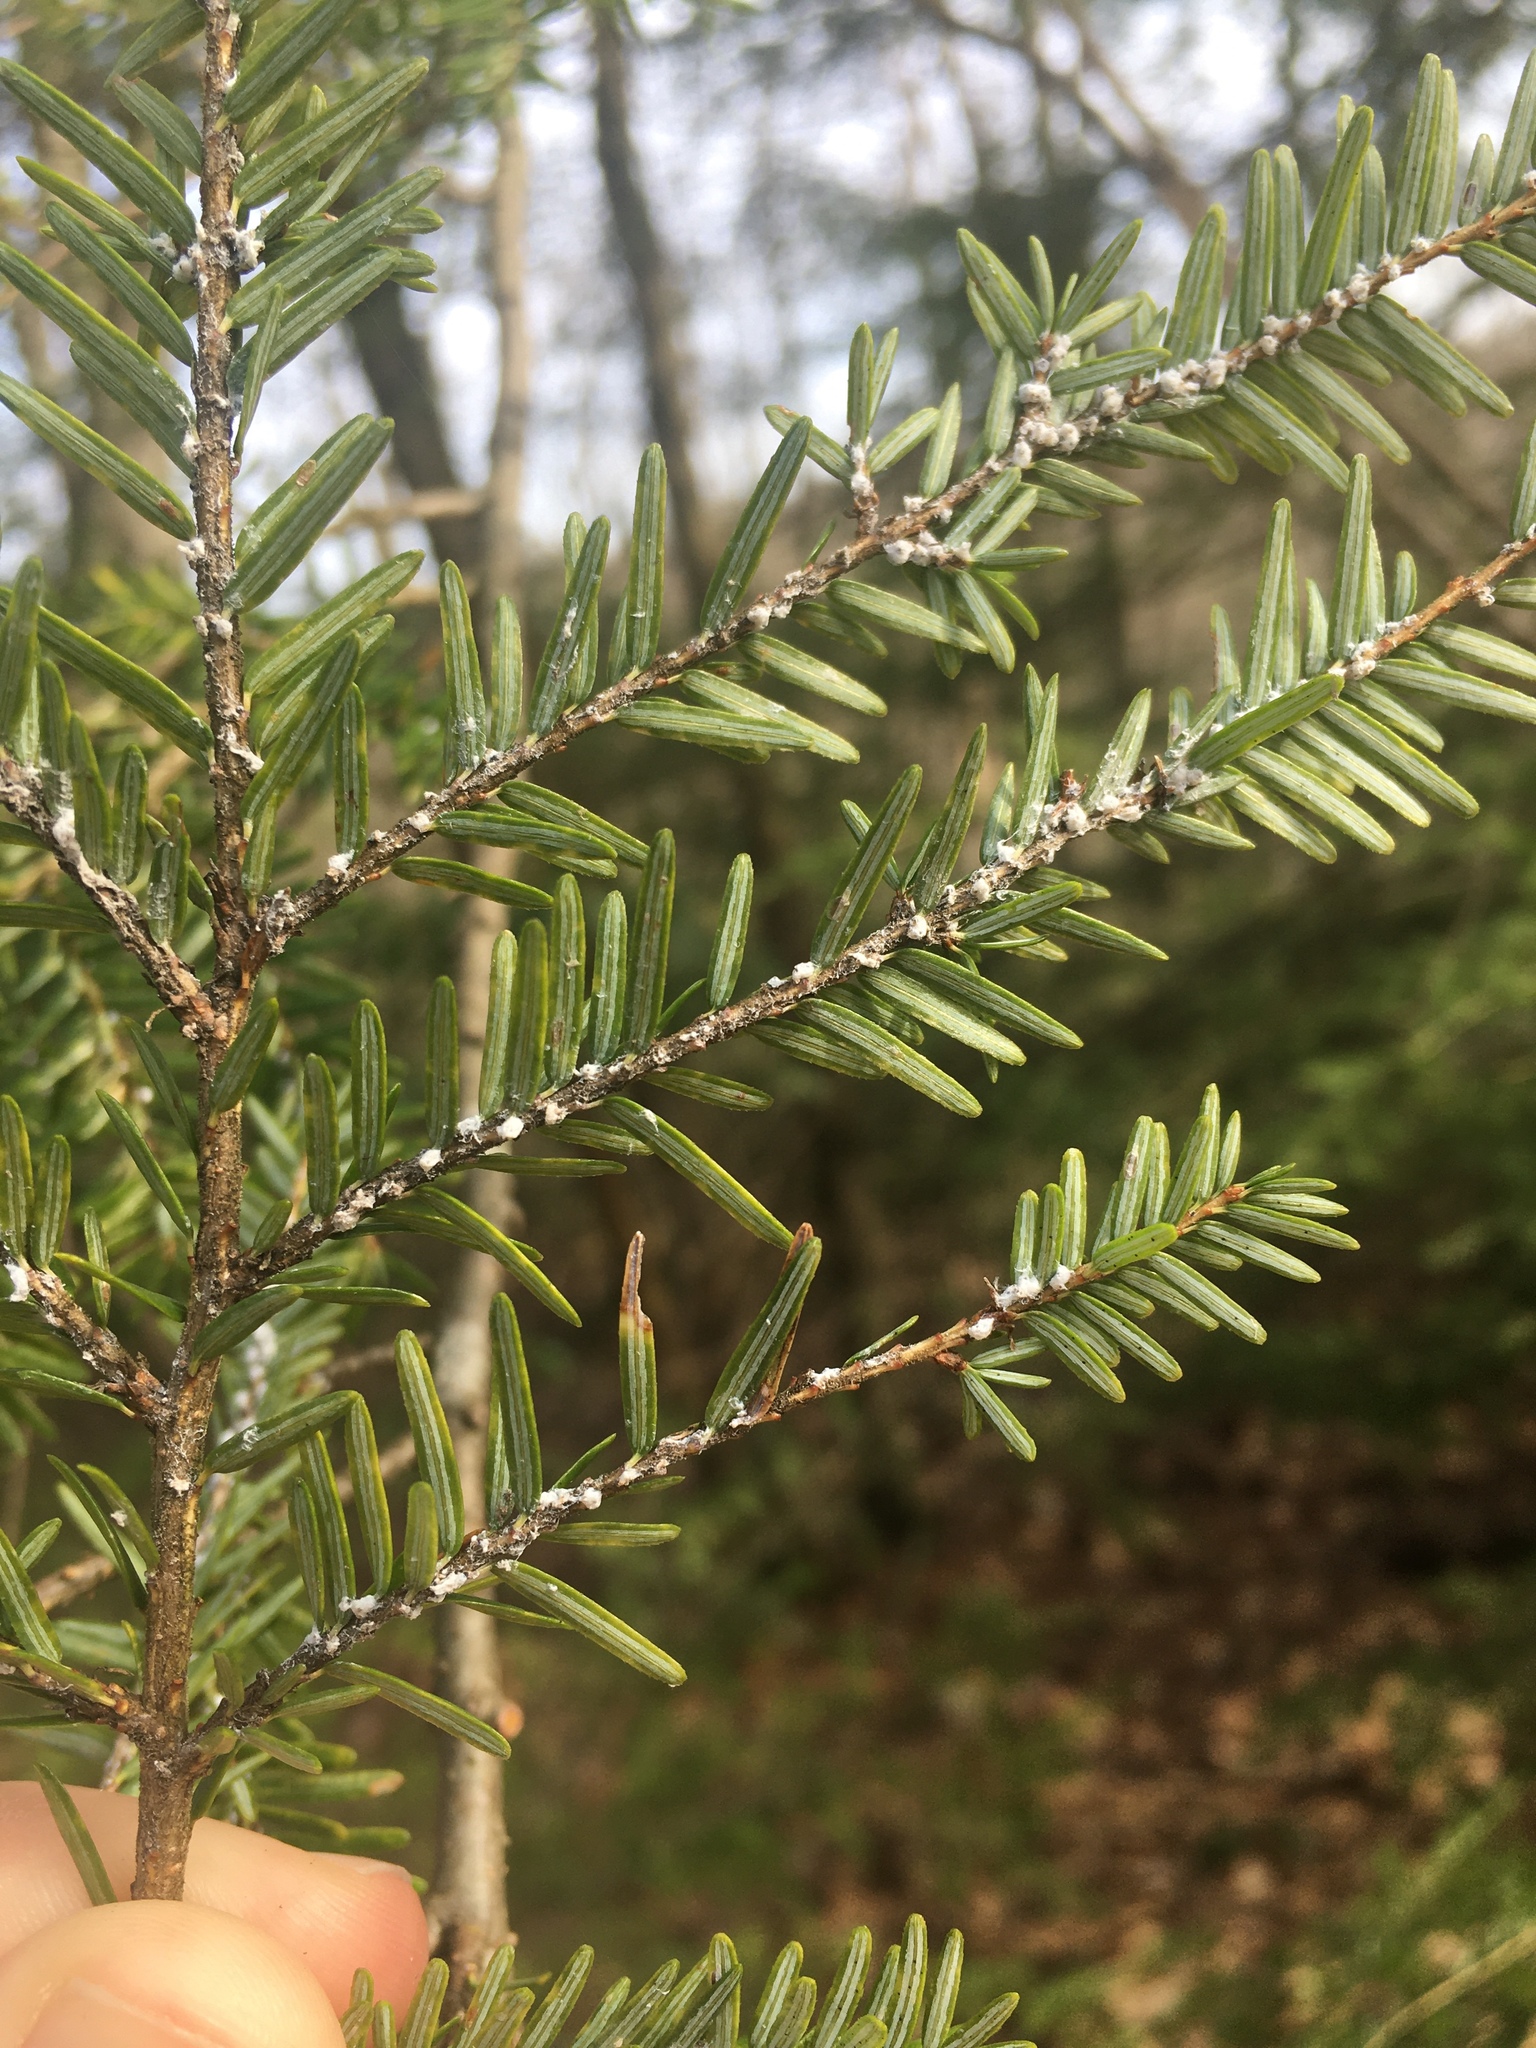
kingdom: Animalia
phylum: Arthropoda
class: Insecta
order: Hemiptera
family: Adelgidae
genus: Adelges
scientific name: Adelges tsugae
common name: Hemlock woolly adelgid
